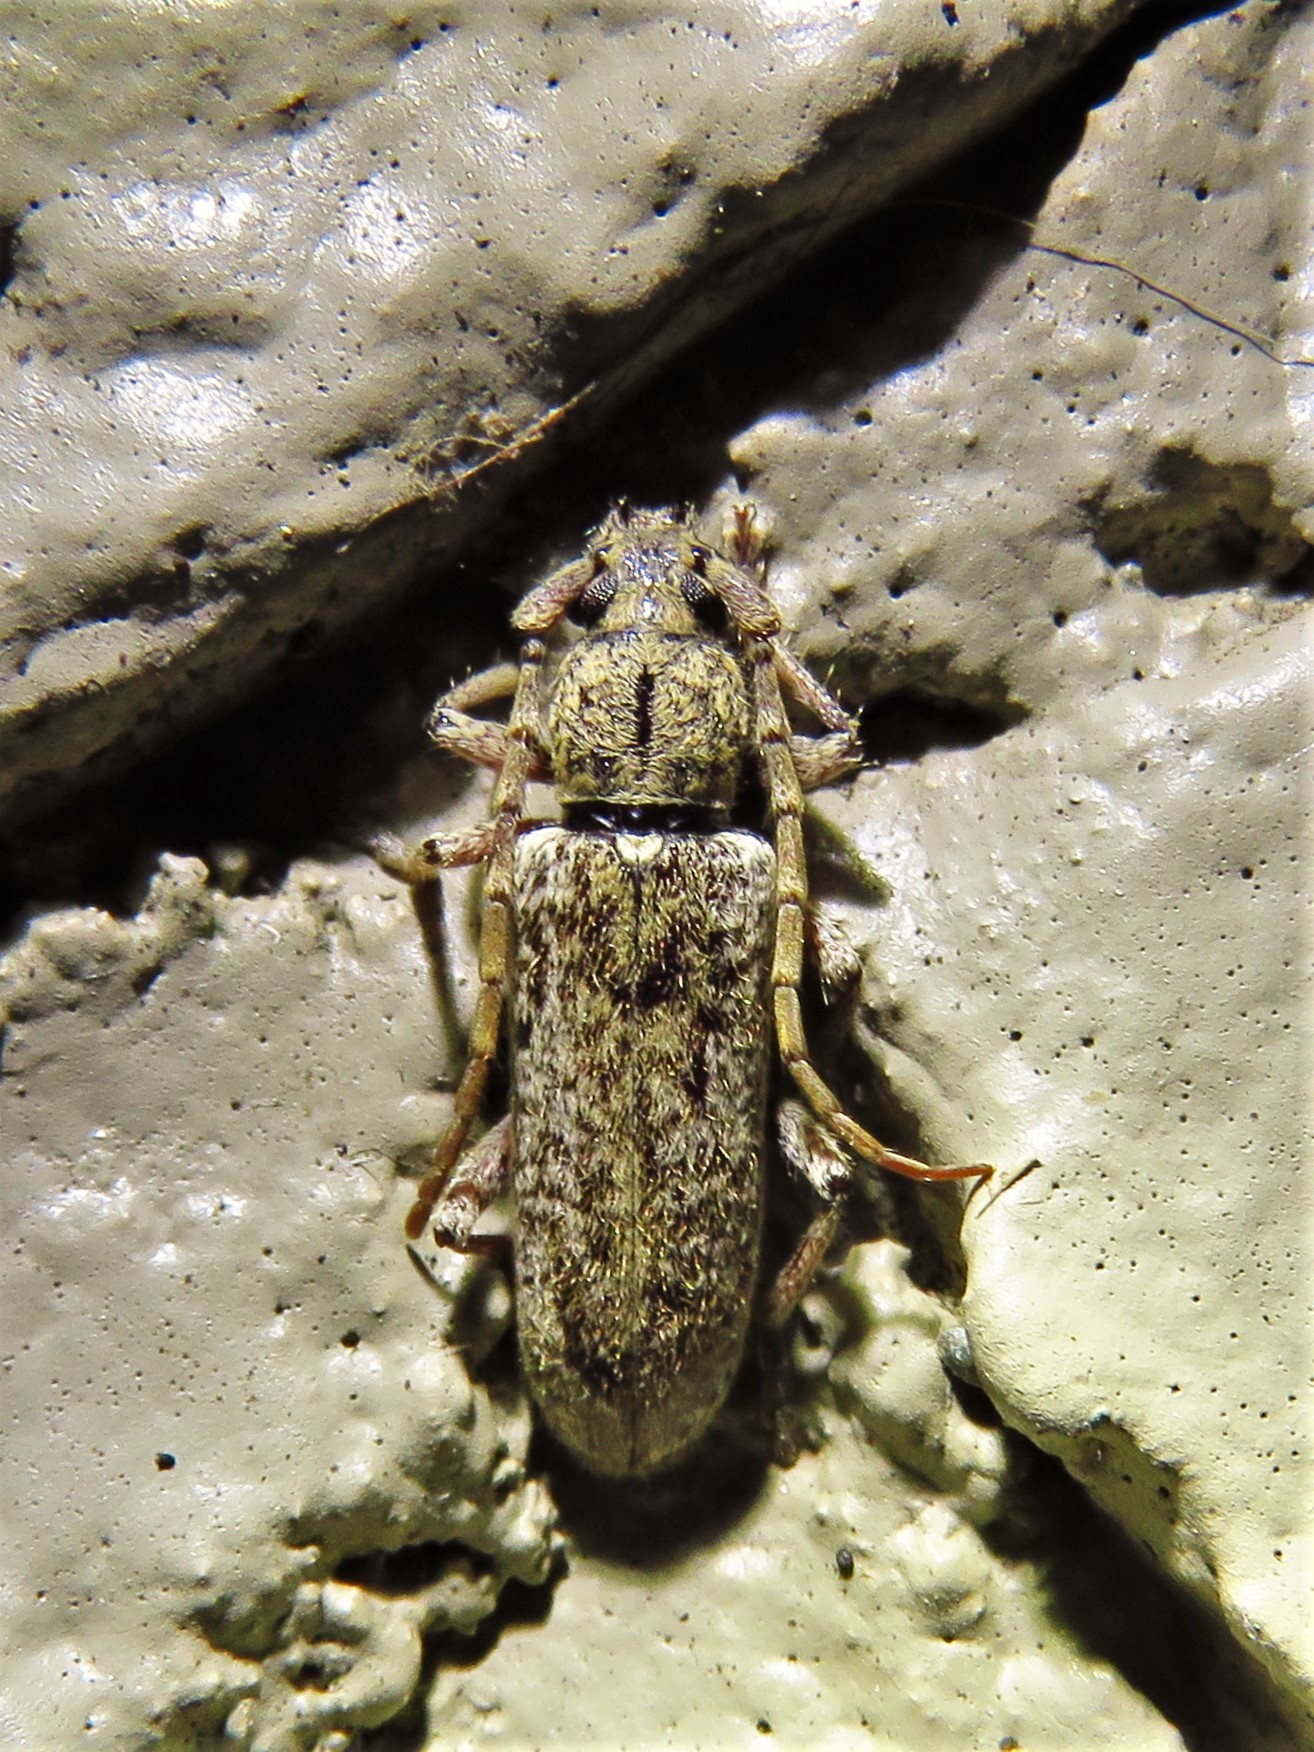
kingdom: Animalia
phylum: Arthropoda
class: Insecta
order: Coleoptera
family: Cerambycidae
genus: Anelaphus
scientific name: Anelaphus debilis
